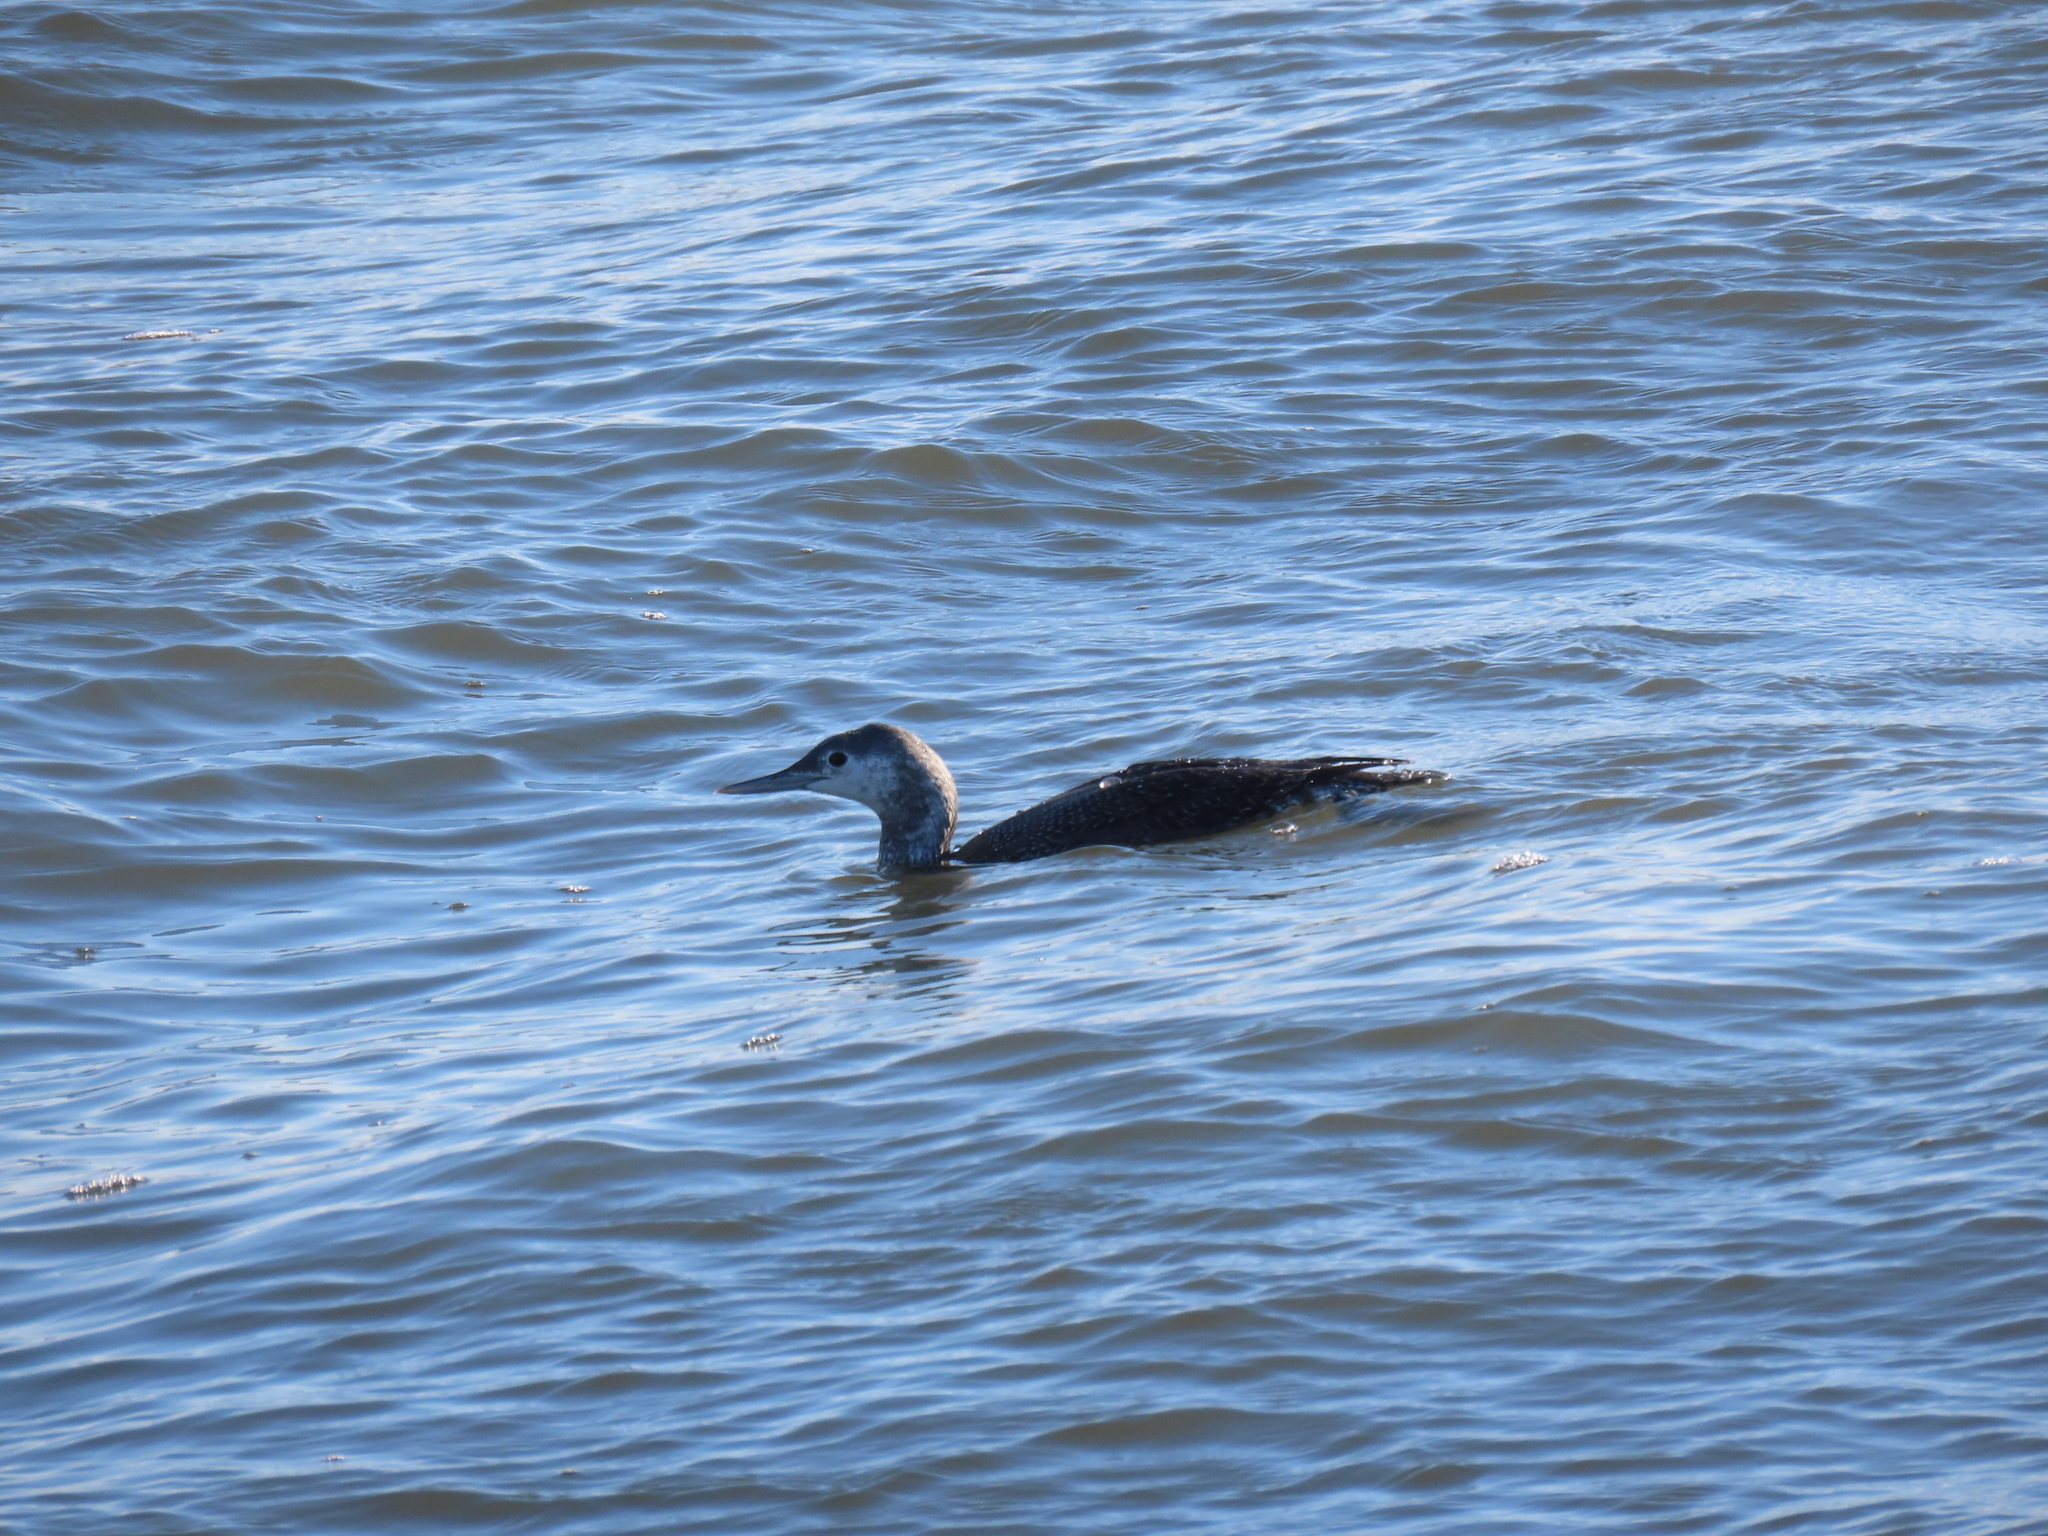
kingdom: Animalia
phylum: Chordata
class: Aves
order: Gaviiformes
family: Gaviidae
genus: Gavia
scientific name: Gavia stellata
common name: Red-throated loon
